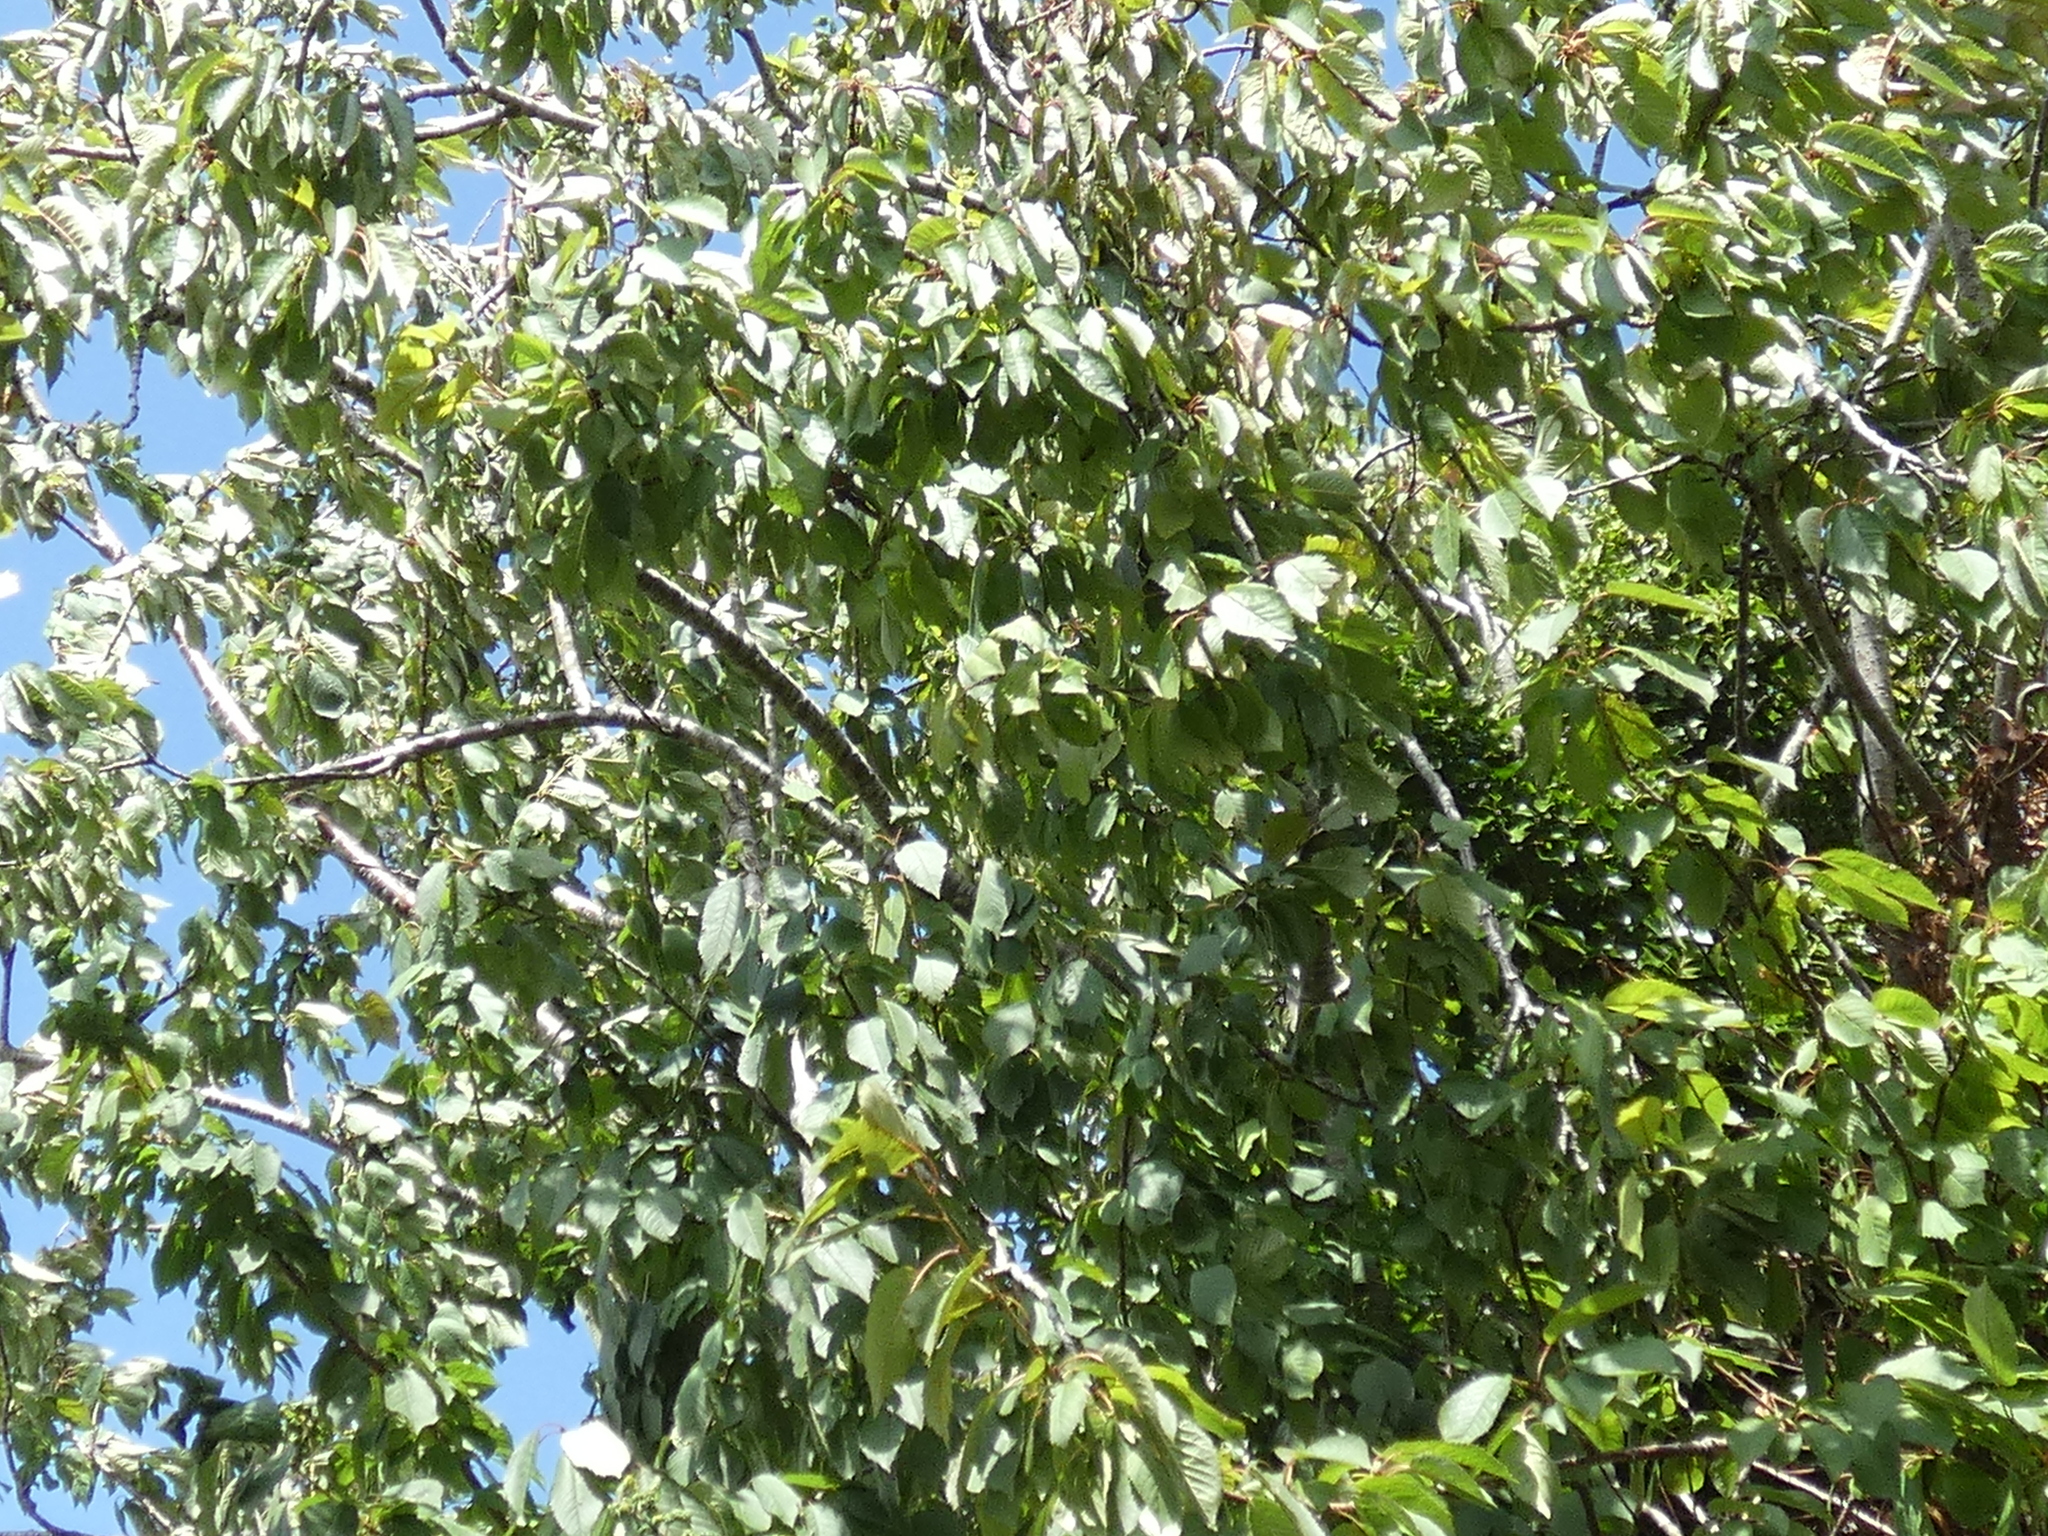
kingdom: Plantae
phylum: Tracheophyta
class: Magnoliopsida
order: Rosales
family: Rosaceae
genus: Prunus
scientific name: Prunus avium
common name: Sweet cherry
